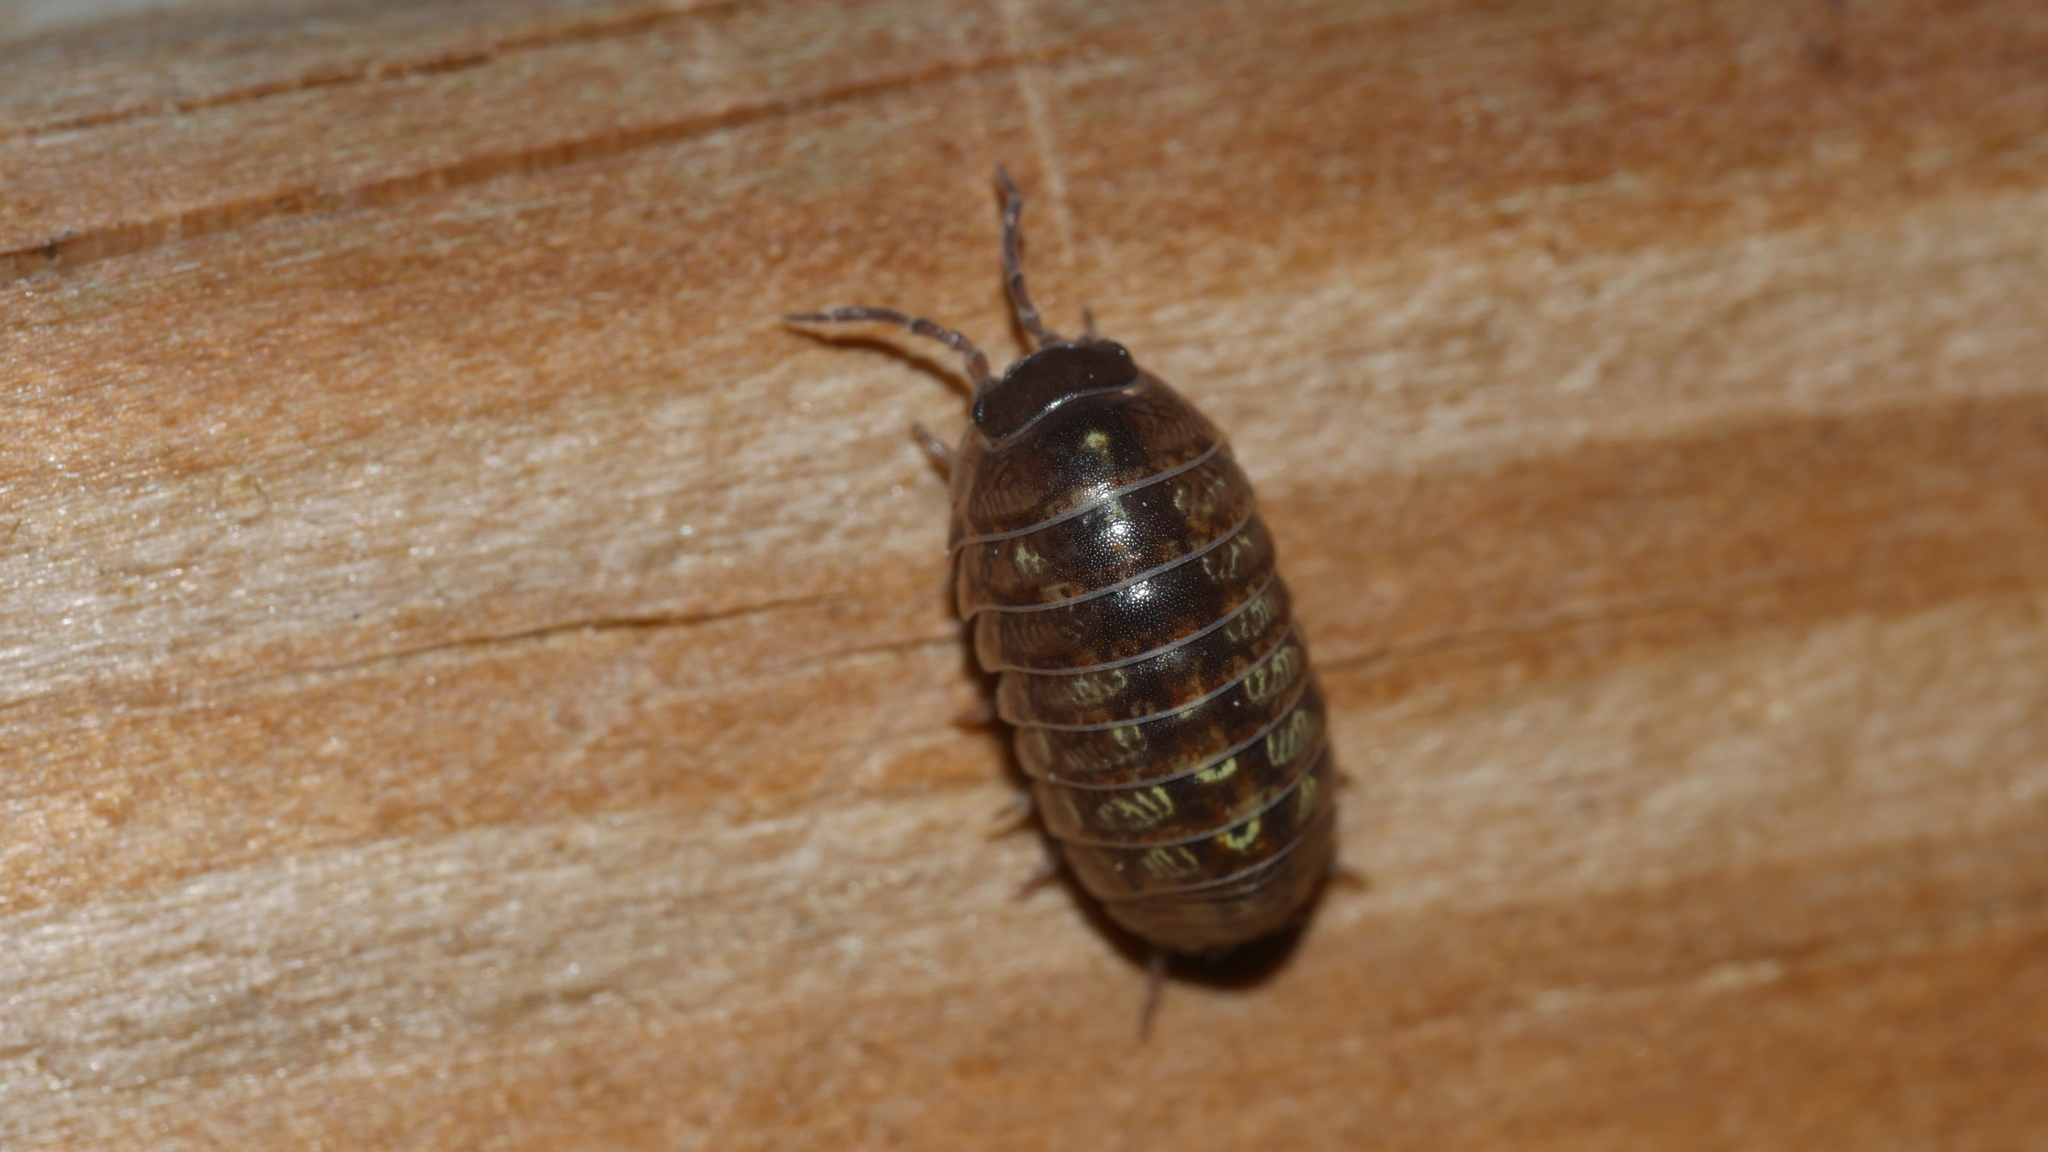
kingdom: Animalia
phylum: Arthropoda
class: Malacostraca
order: Isopoda
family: Armadillidiidae
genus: Armadillidium
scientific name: Armadillidium vulgare
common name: Common pill woodlouse
